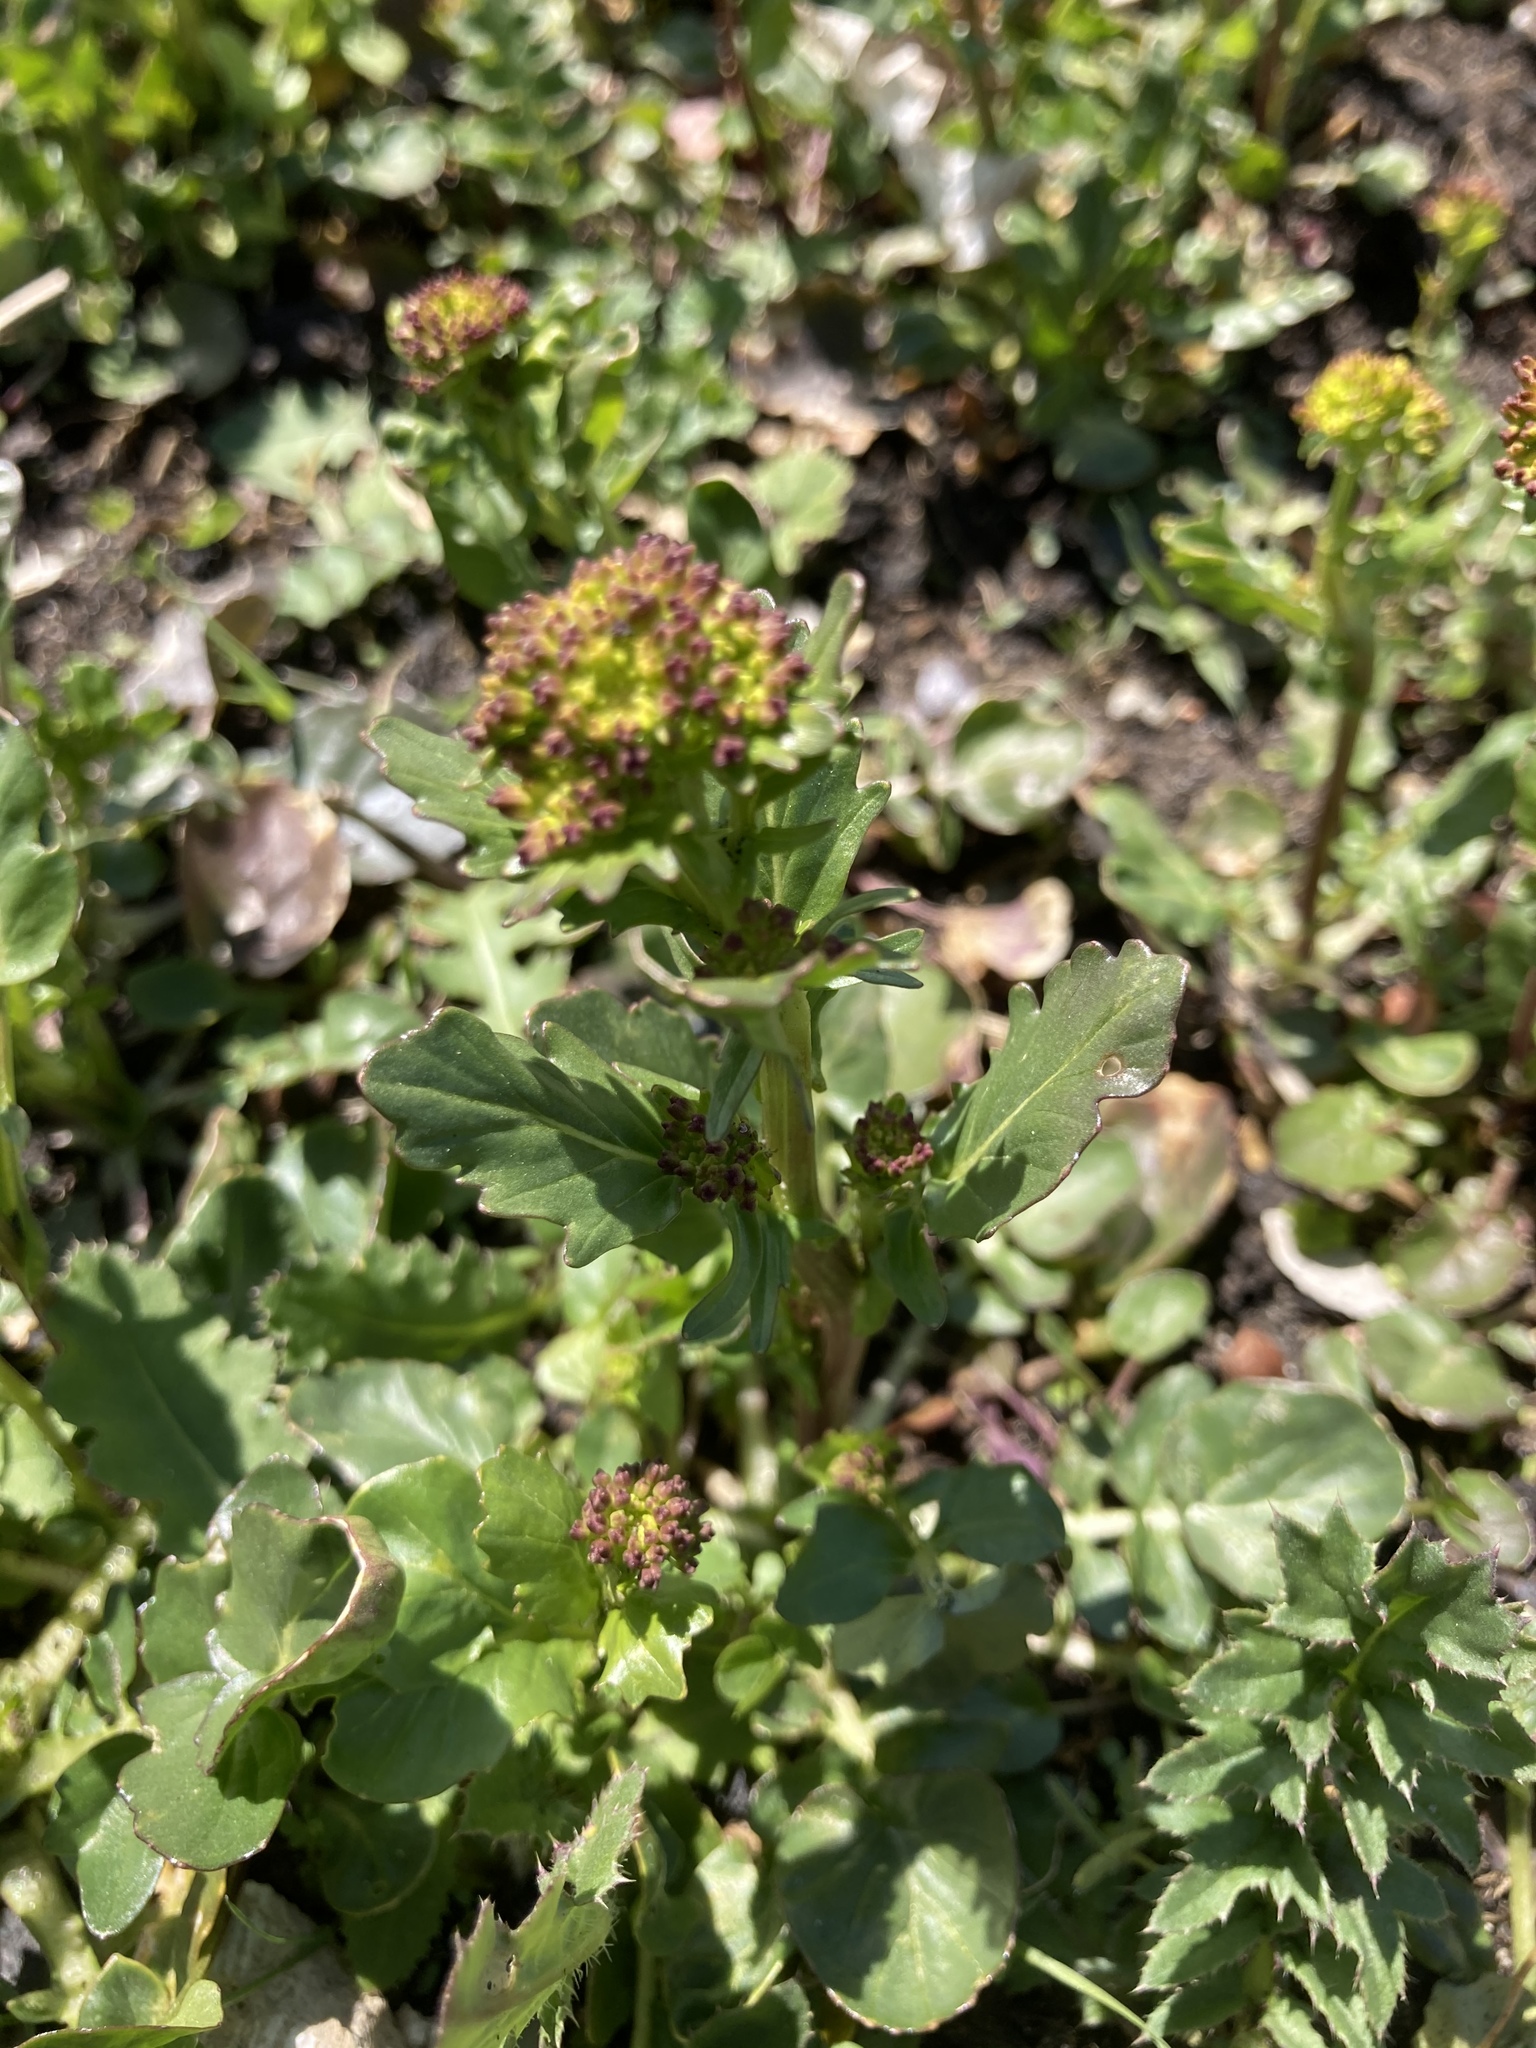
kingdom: Plantae
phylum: Tracheophyta
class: Magnoliopsida
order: Brassicales
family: Brassicaceae
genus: Barbarea
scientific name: Barbarea vulgaris
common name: Cressy-greens
